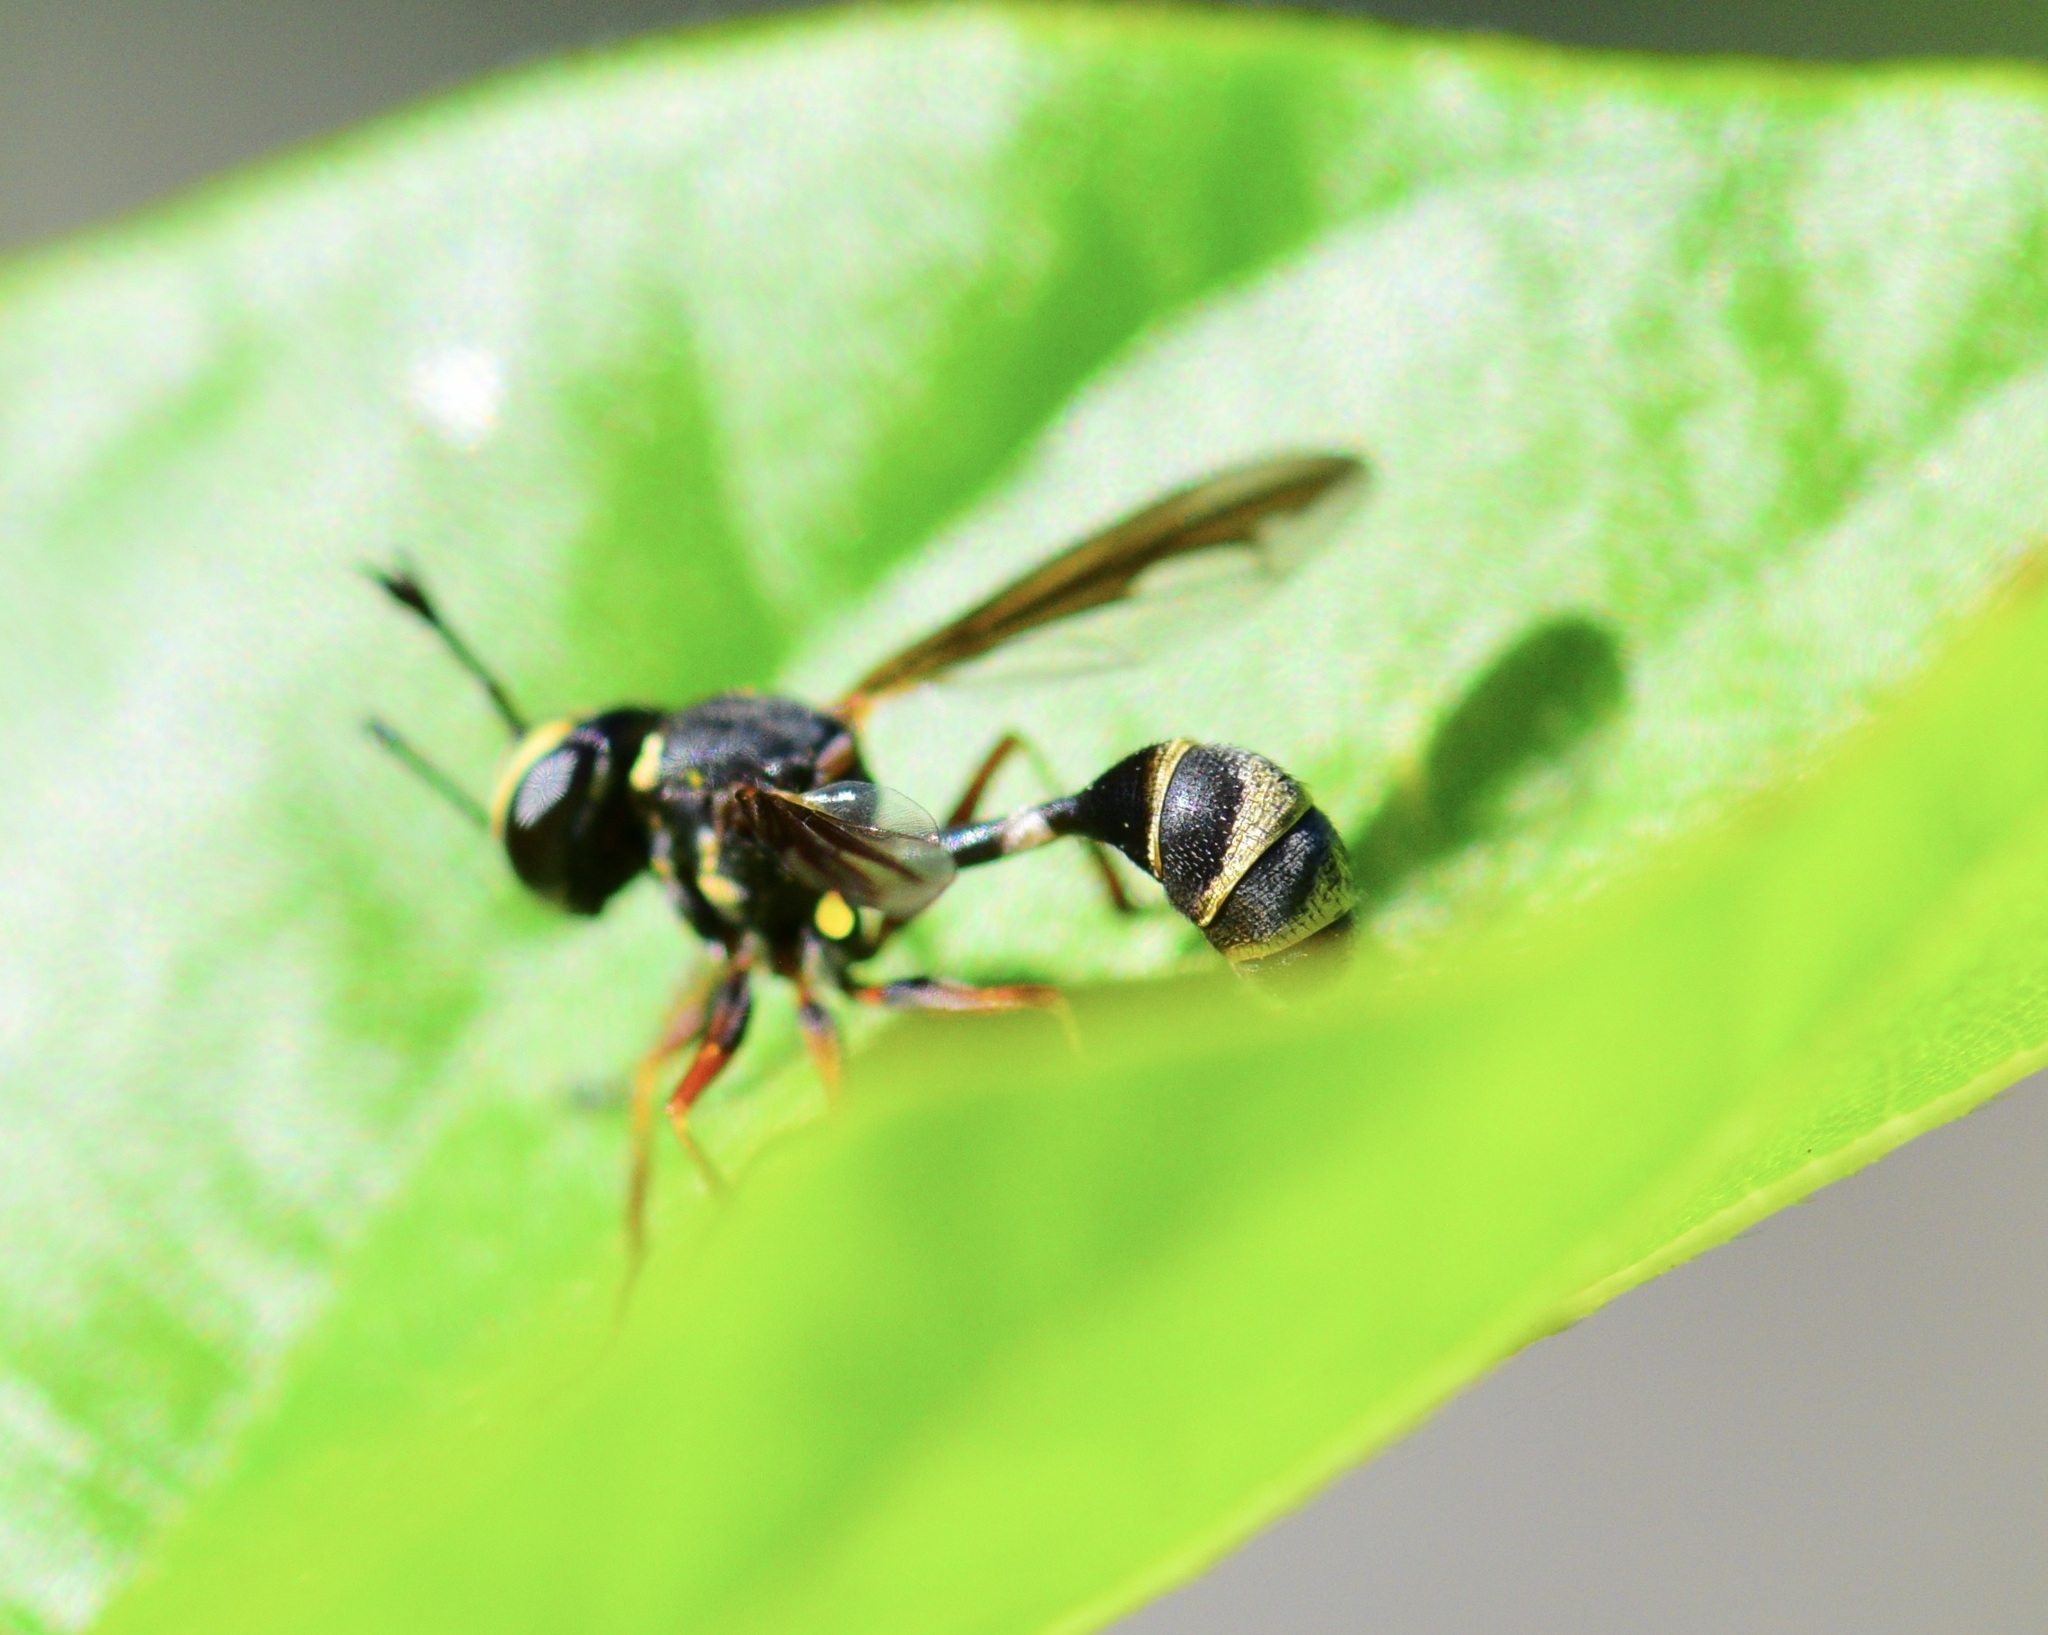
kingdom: Animalia
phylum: Arthropoda
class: Insecta
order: Diptera
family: Conopidae
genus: Physocephala
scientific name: Physocephala marginata
